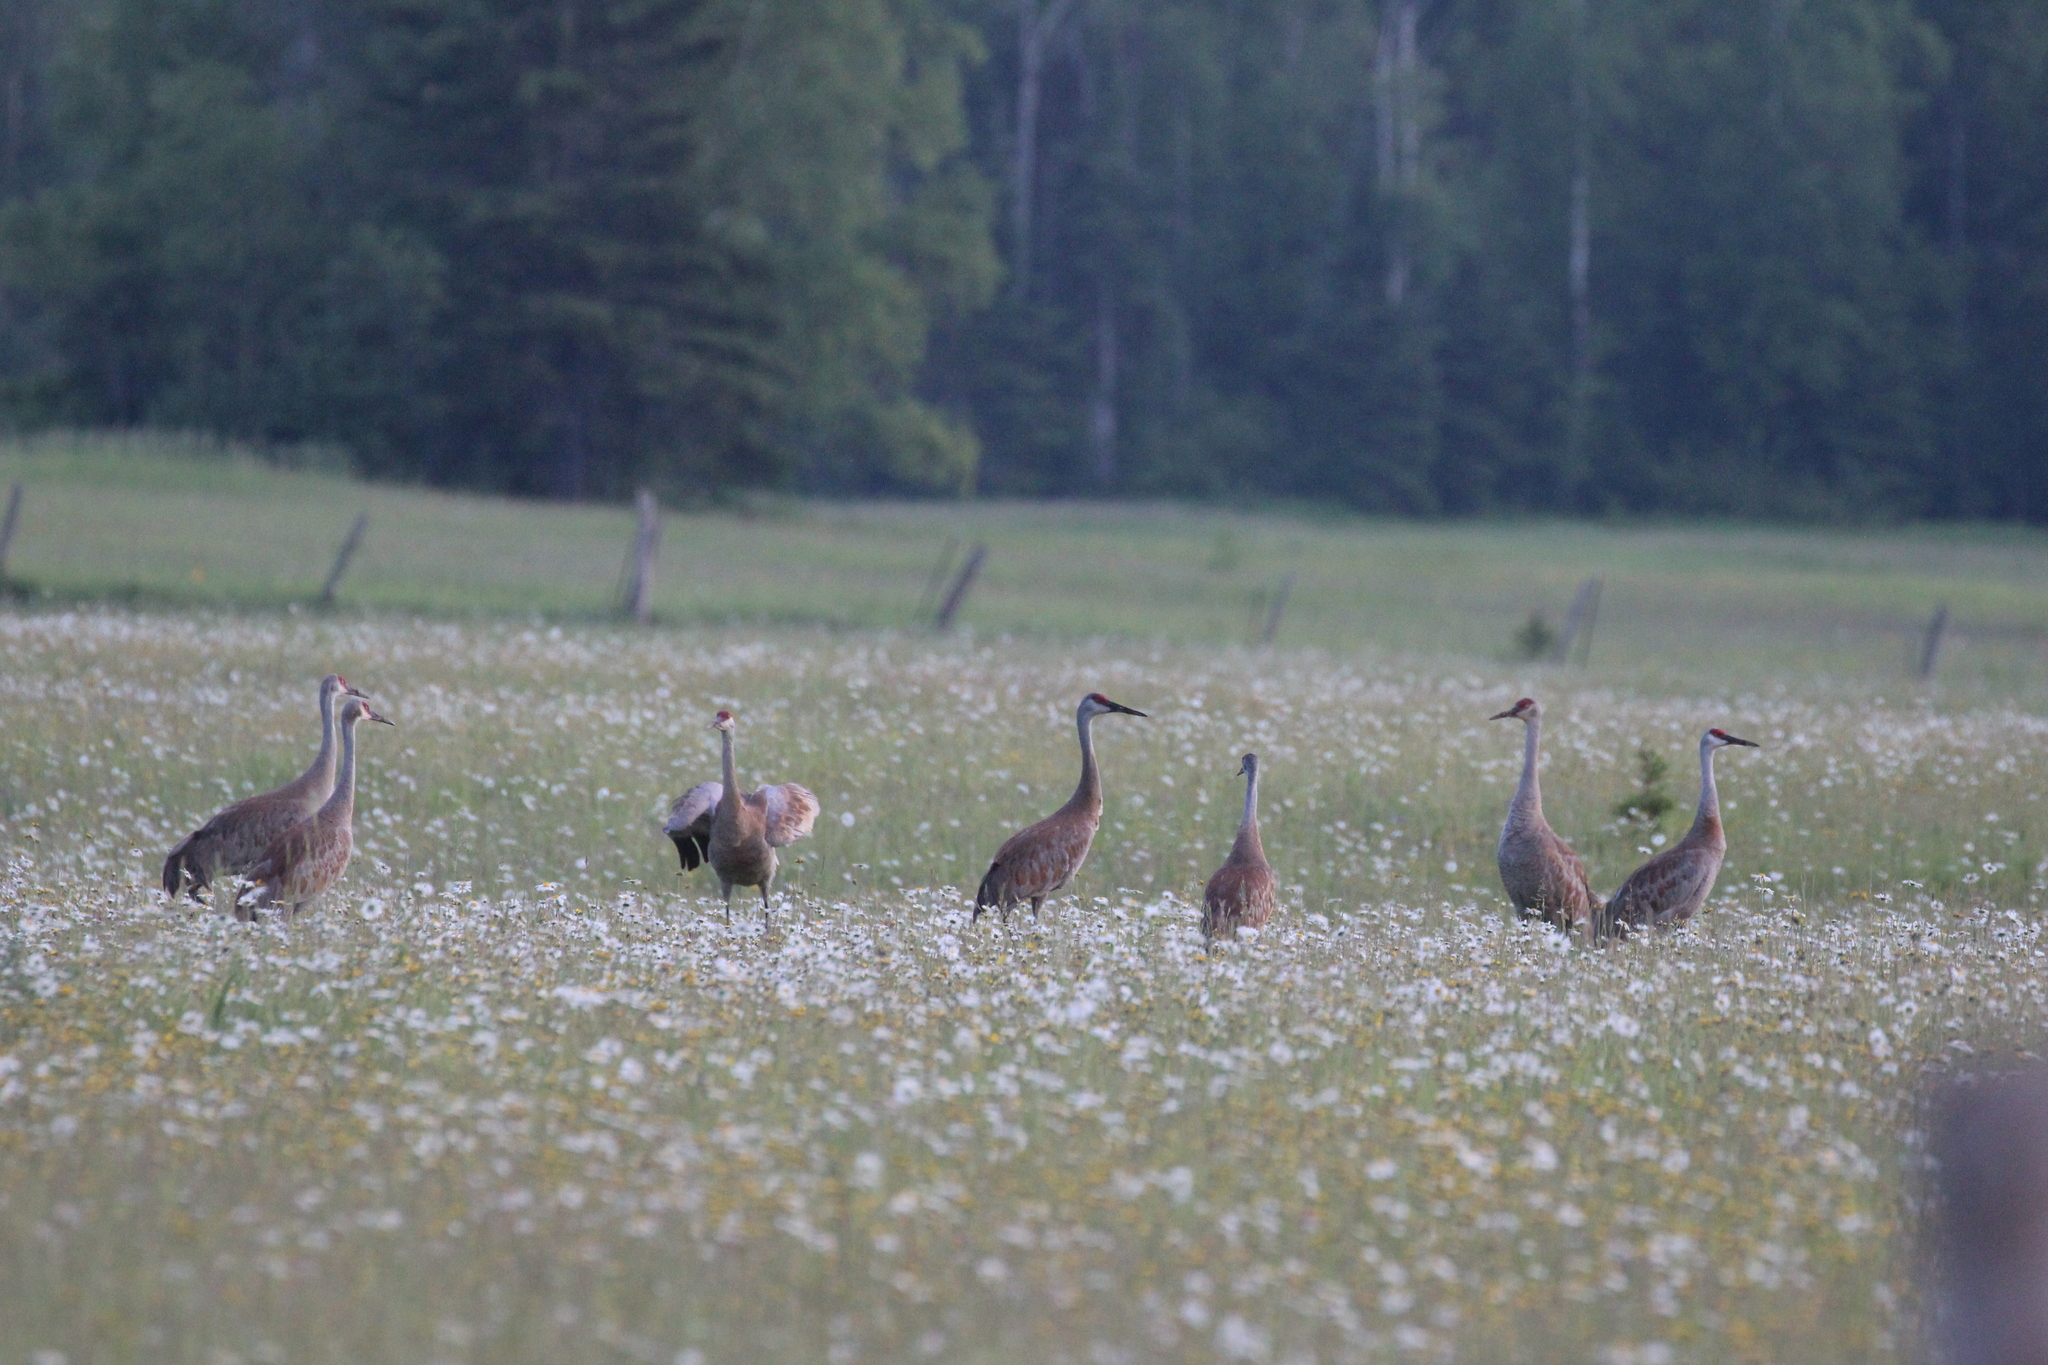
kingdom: Animalia
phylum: Chordata
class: Aves
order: Gruiformes
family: Gruidae
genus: Grus
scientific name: Grus canadensis
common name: Sandhill crane
